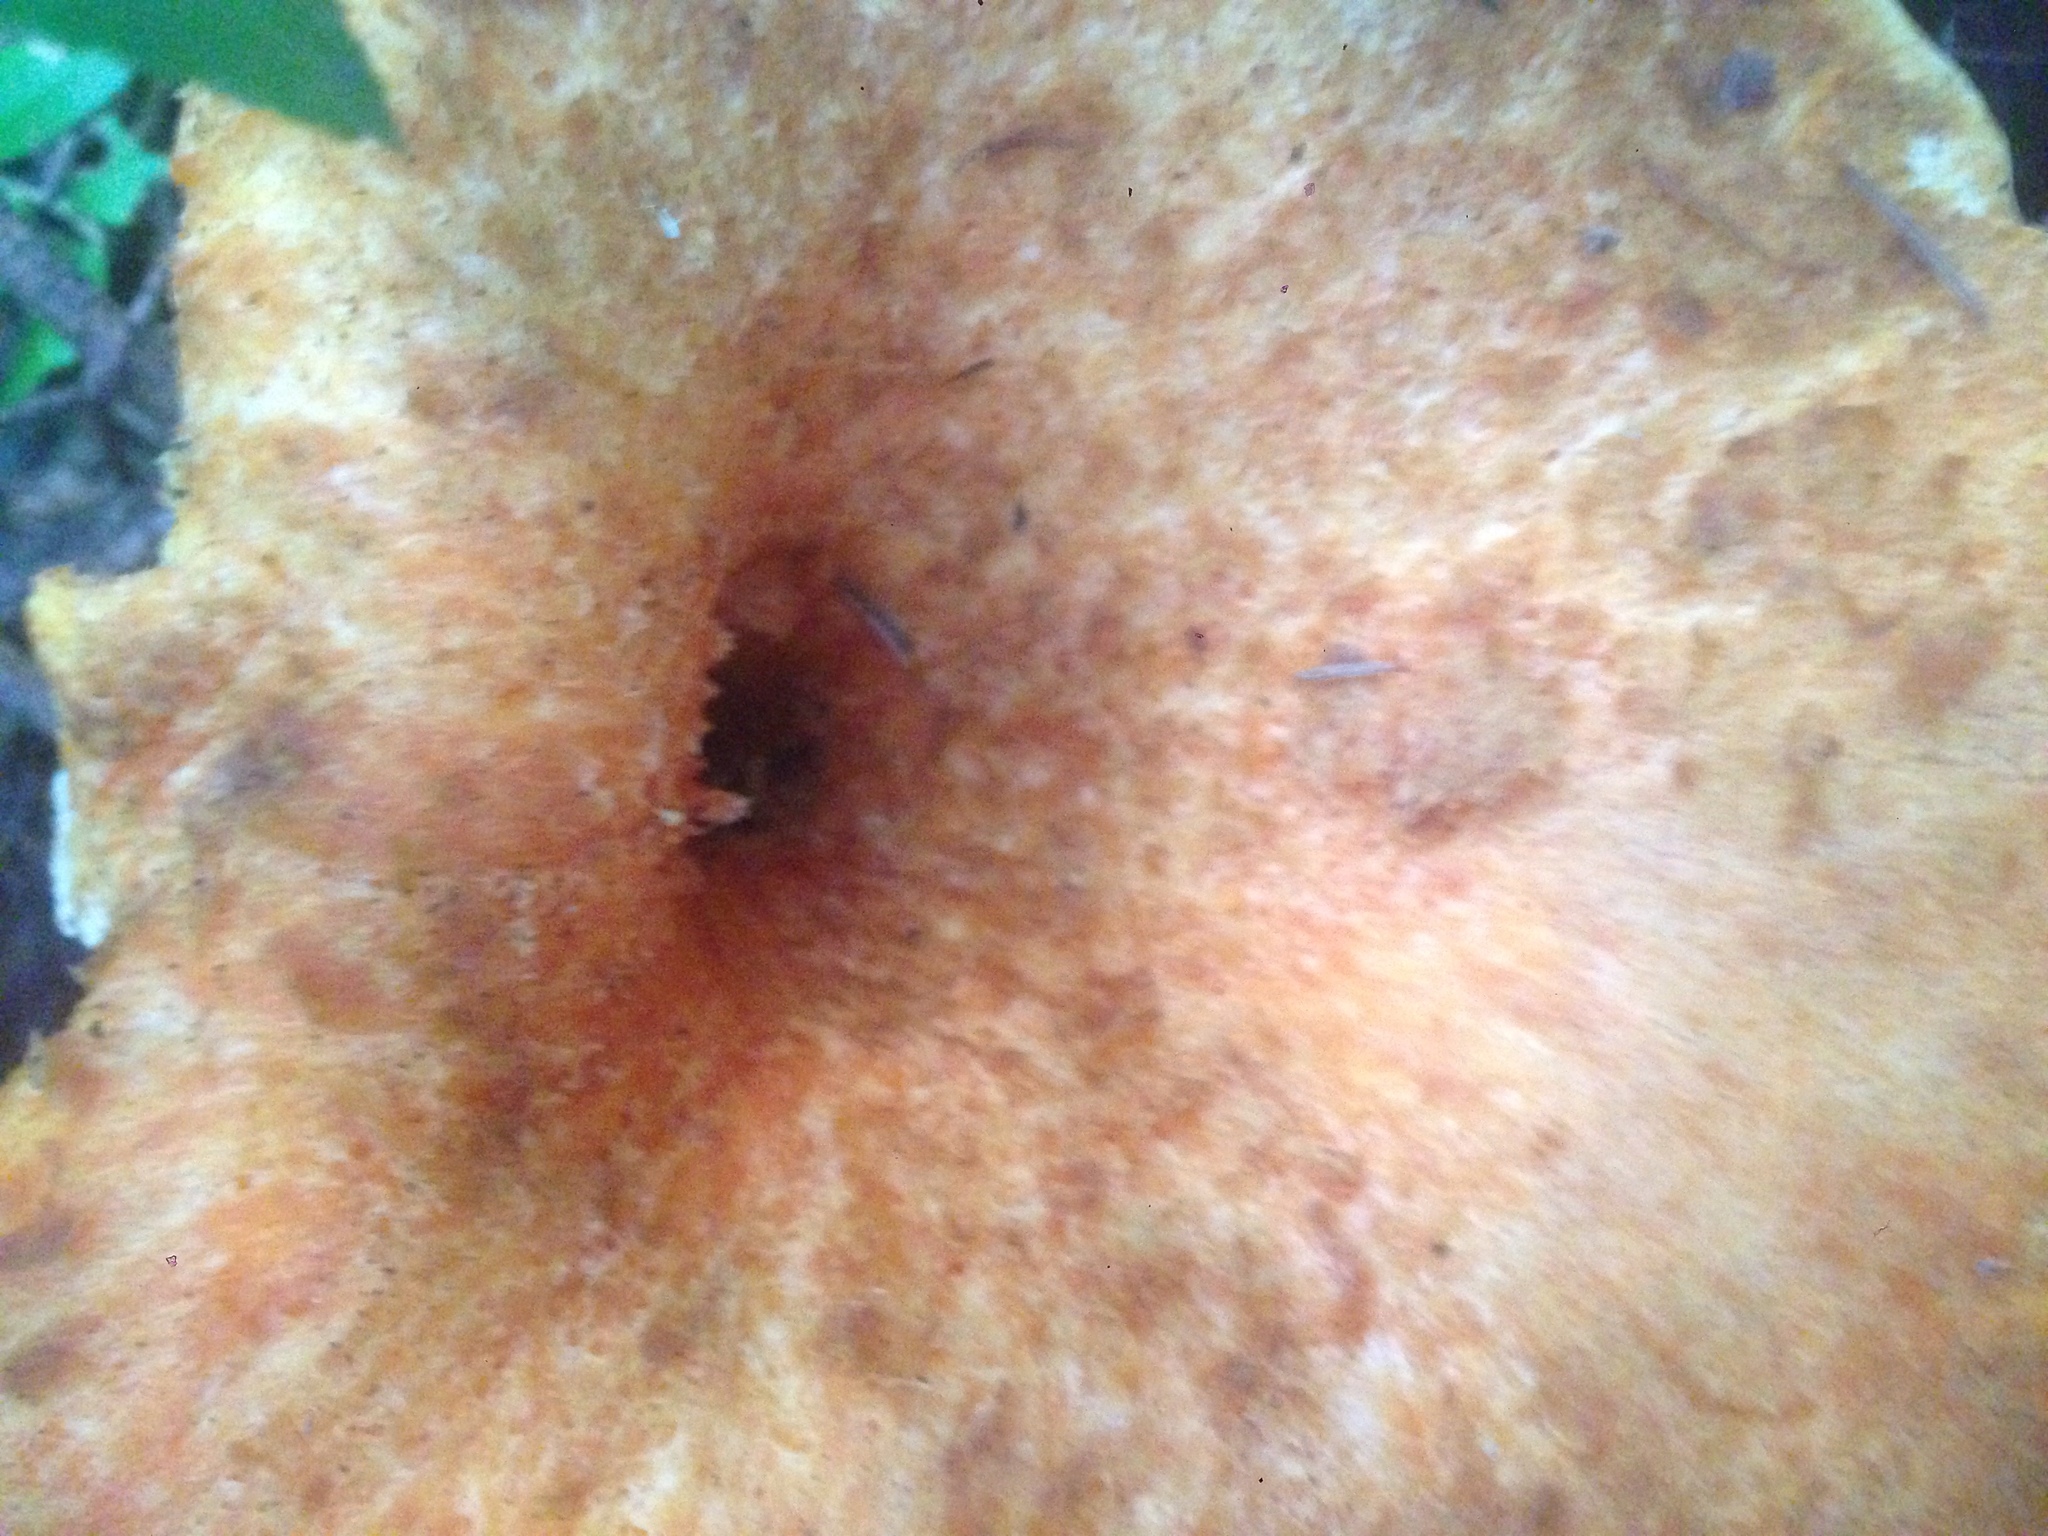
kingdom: Fungi
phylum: Basidiomycota
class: Agaricomycetes
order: Gomphales
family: Gomphaceae
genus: Turbinellus
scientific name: Turbinellus floccosus
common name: Scaly chanterelle
